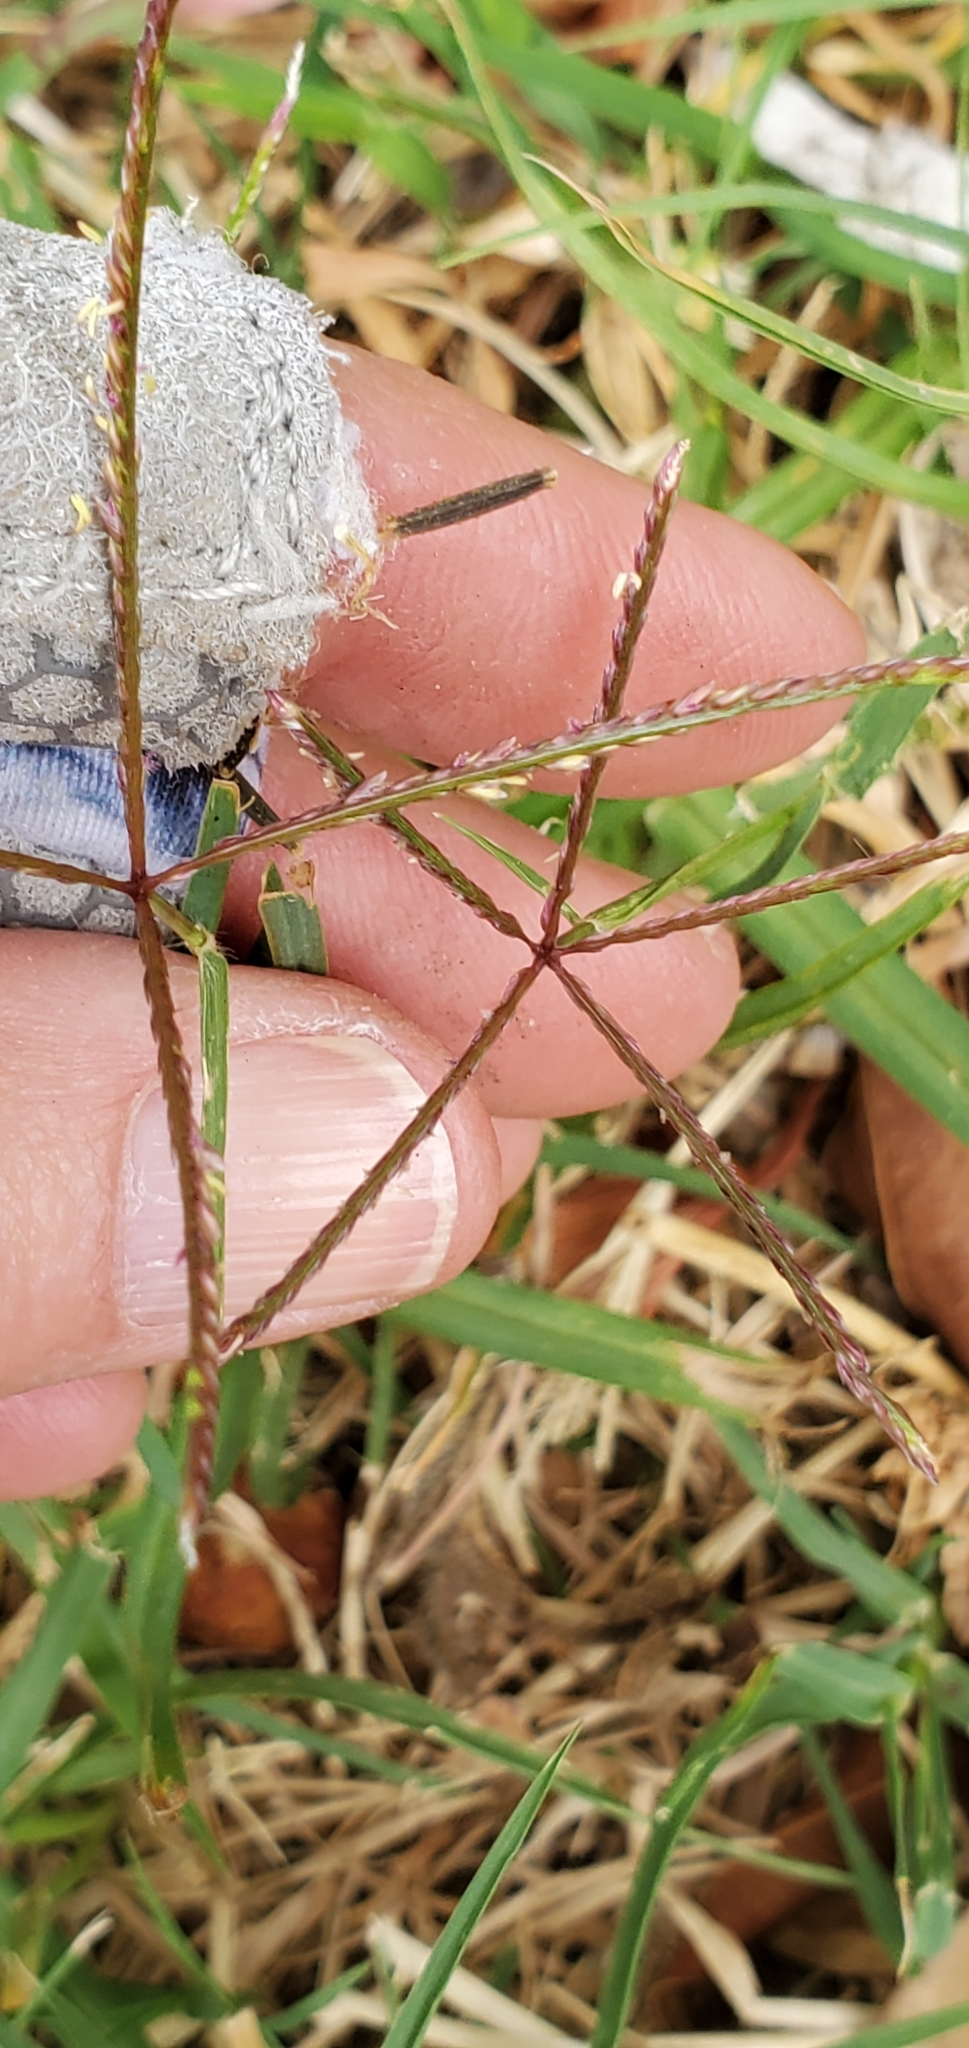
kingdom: Plantae
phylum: Tracheophyta
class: Liliopsida
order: Poales
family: Poaceae
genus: Cynodon
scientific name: Cynodon dactylon
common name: Bermuda grass
